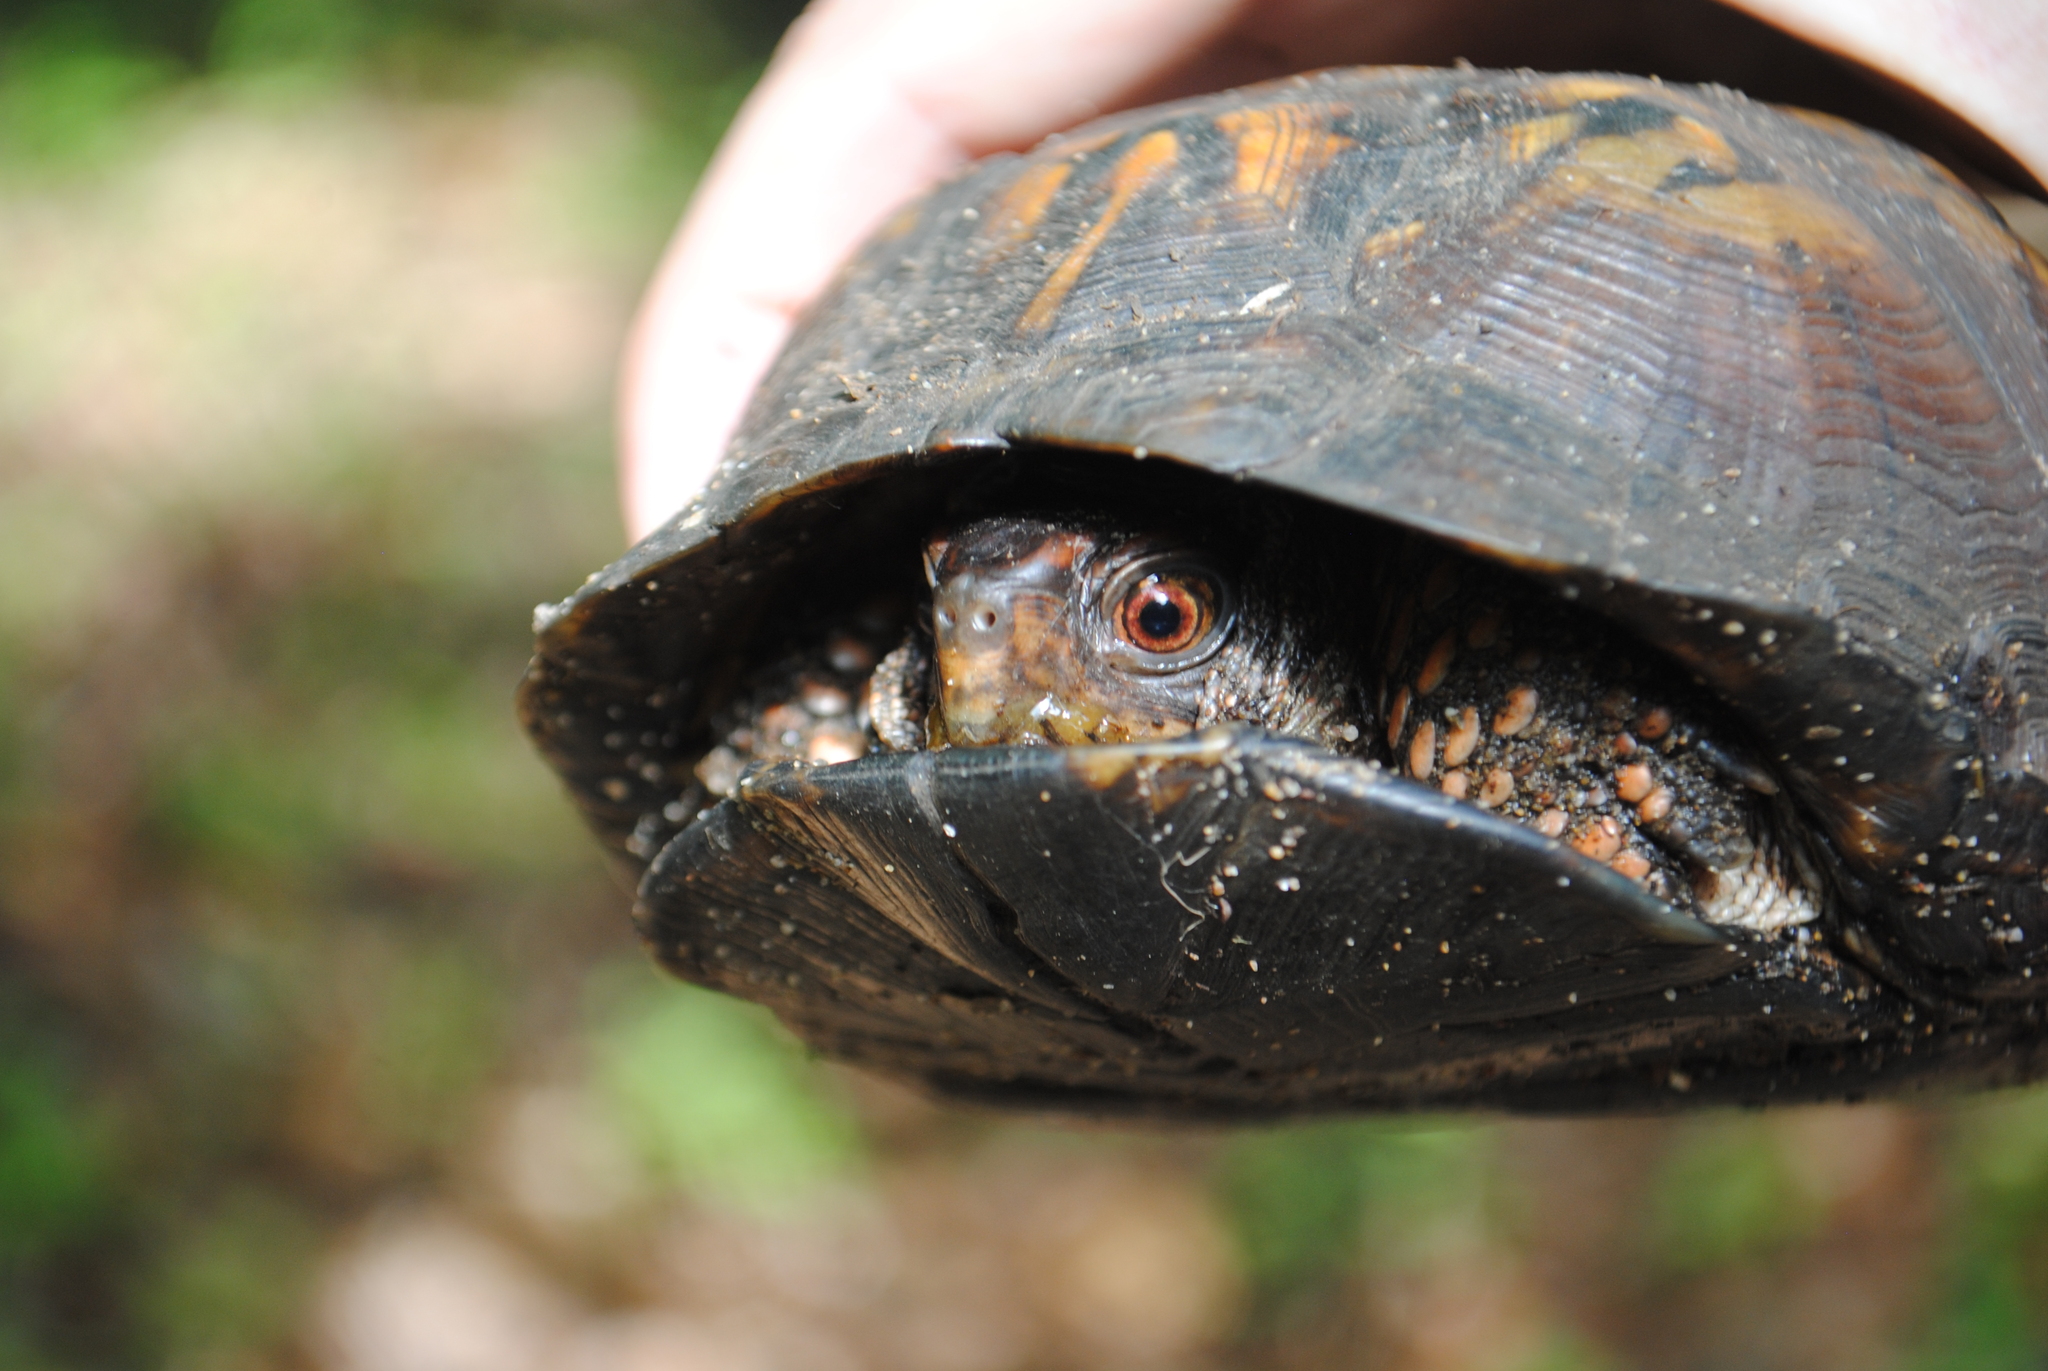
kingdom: Animalia
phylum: Chordata
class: Testudines
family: Emydidae
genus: Terrapene
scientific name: Terrapene carolina
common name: Common box turtle
